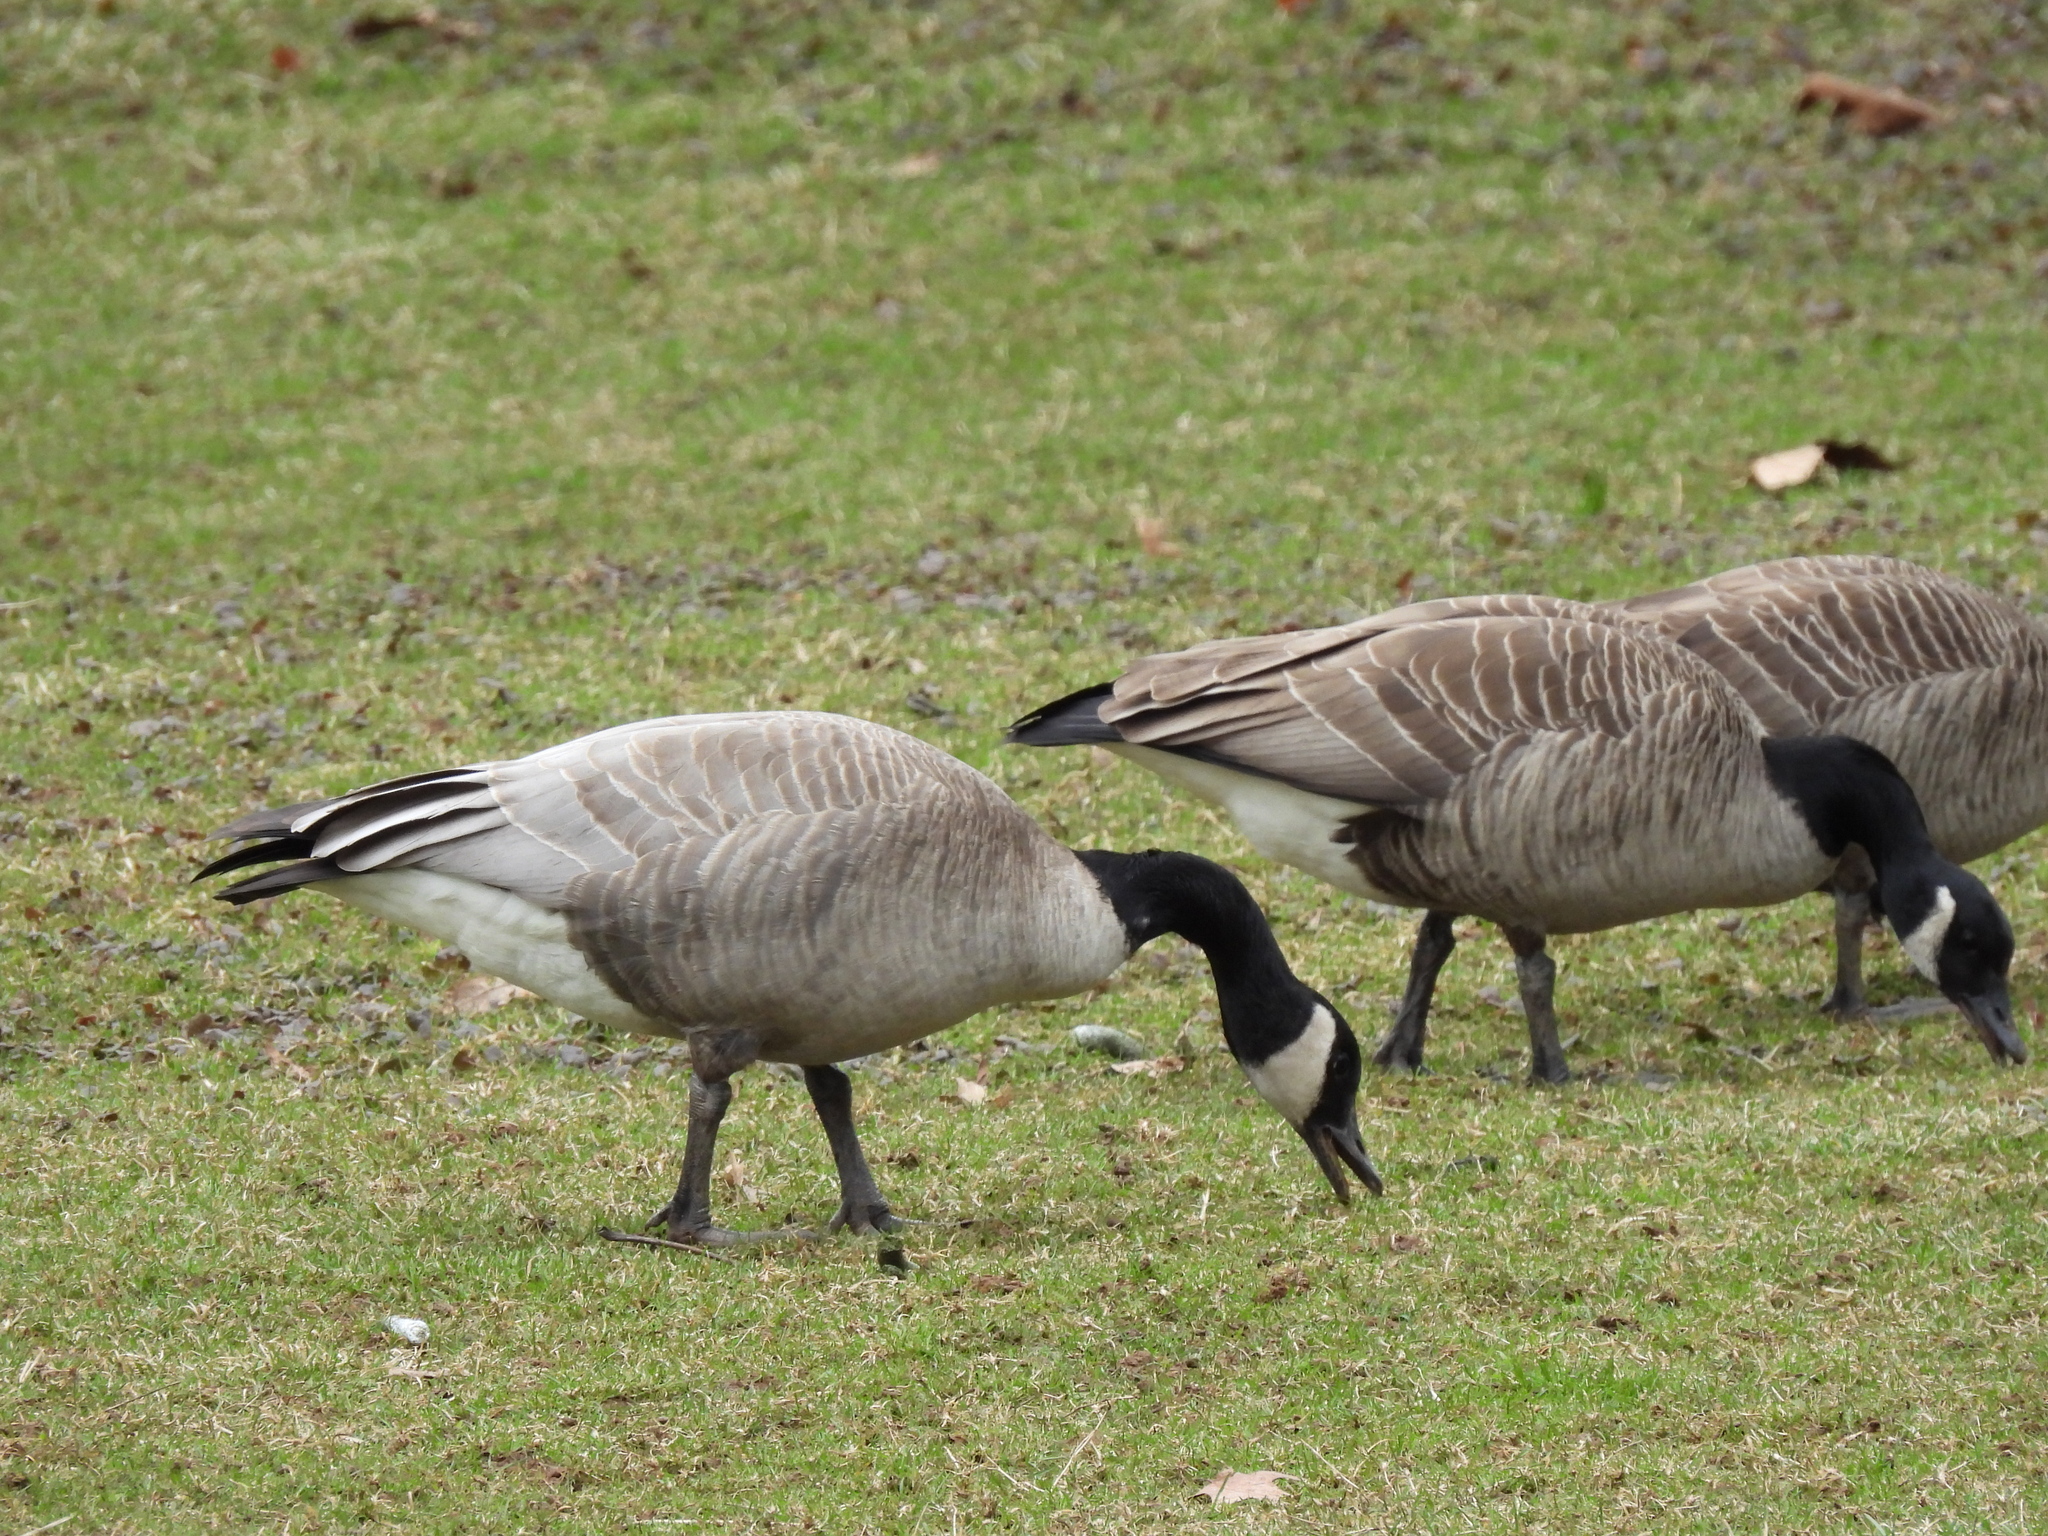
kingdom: Animalia
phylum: Chordata
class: Aves
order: Anseriformes
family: Anatidae
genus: Branta
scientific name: Branta canadensis
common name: Canada goose
